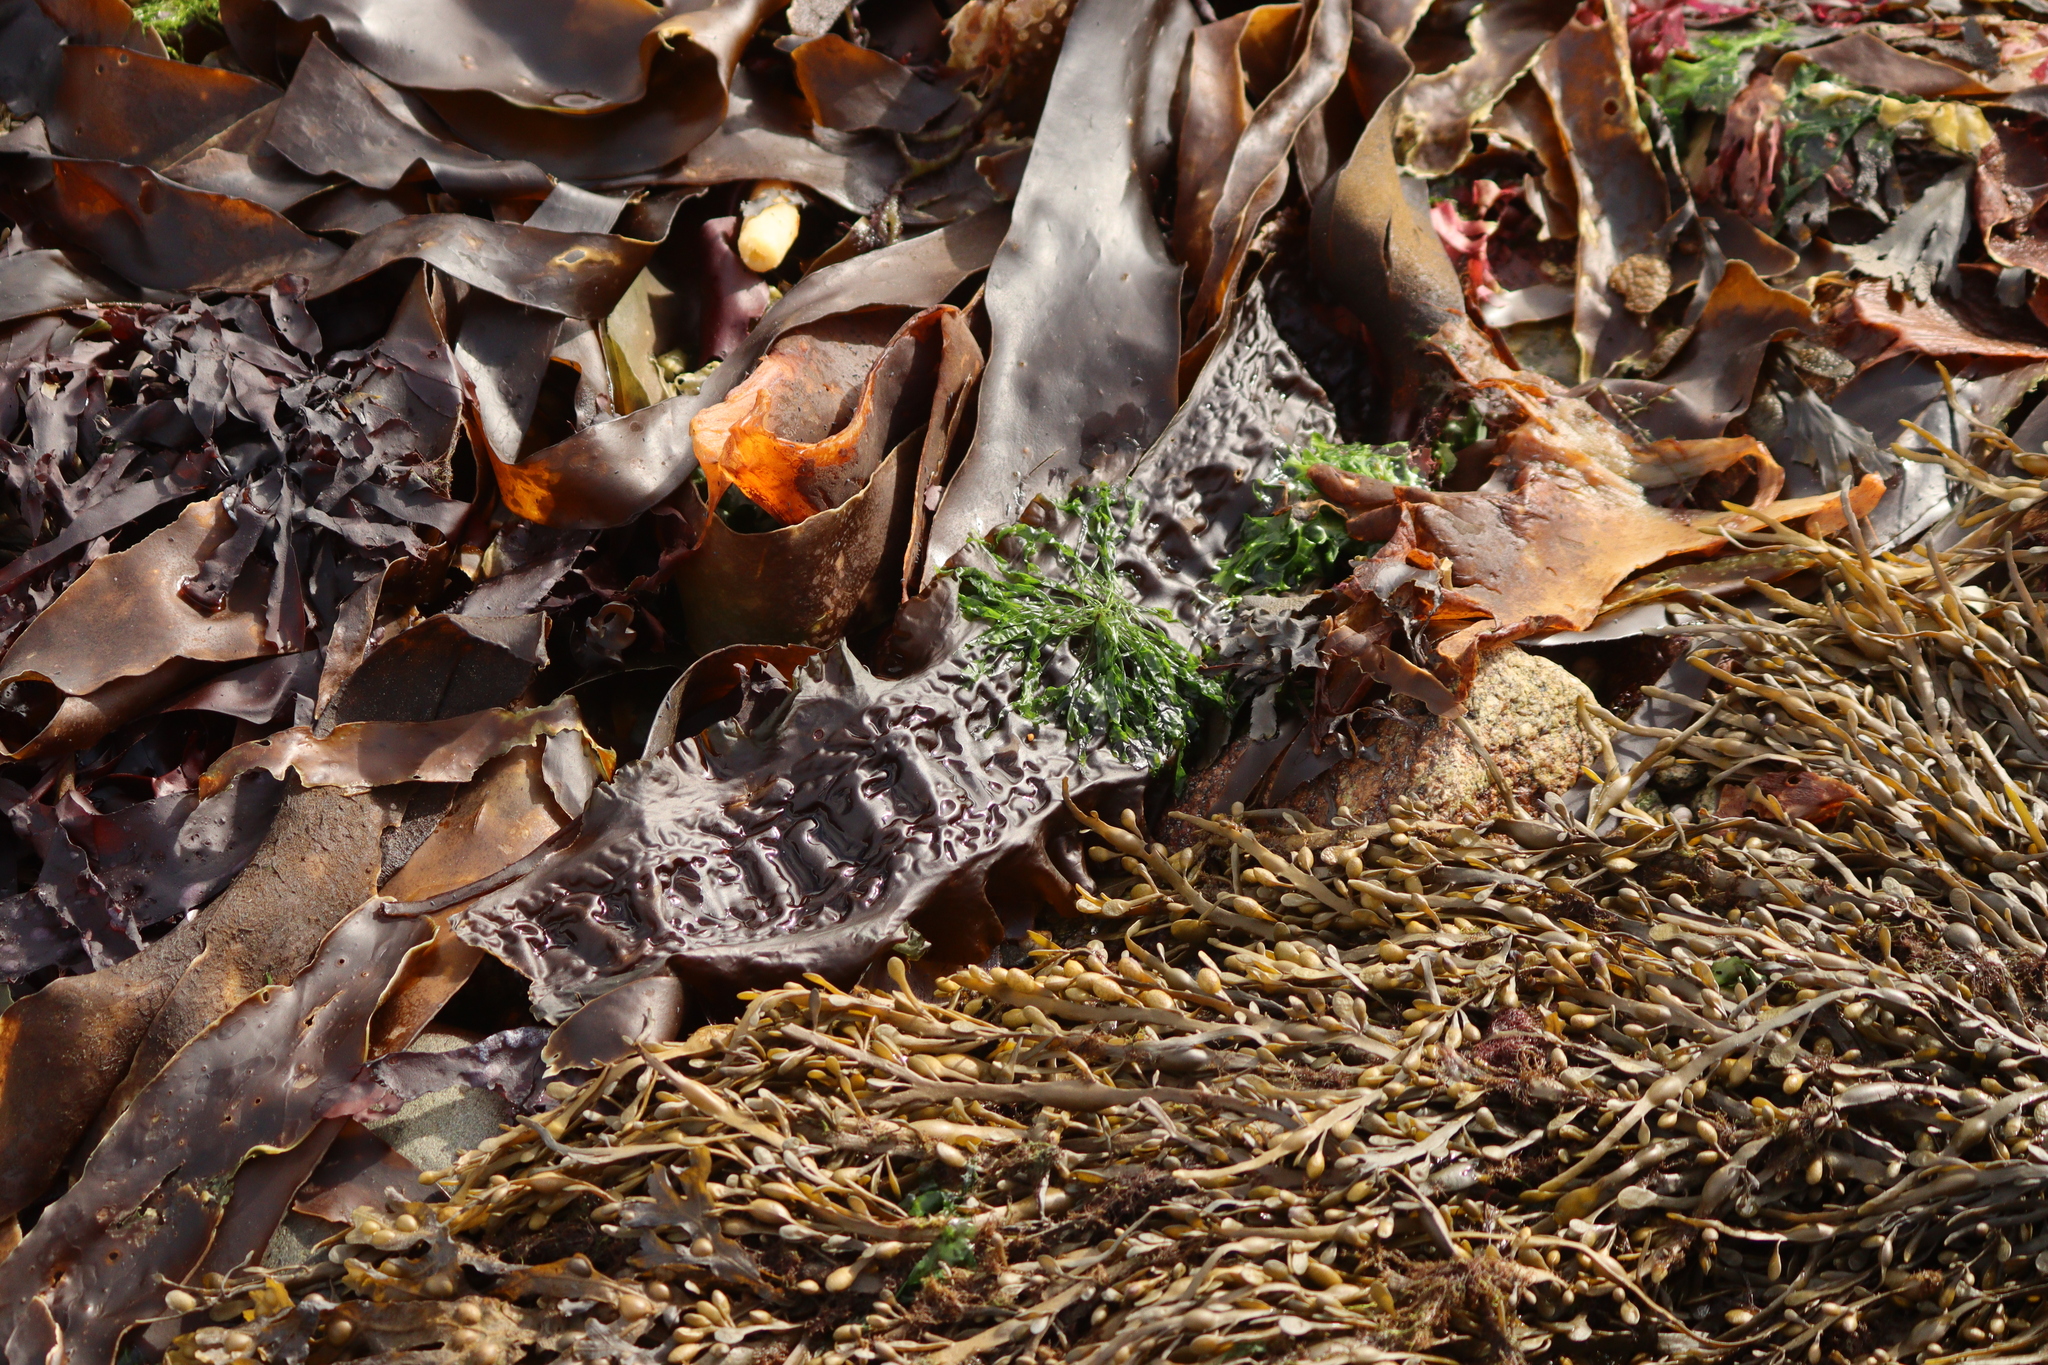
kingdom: Chromista
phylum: Ochrophyta
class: Phaeophyceae
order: Laminariales
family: Laminariaceae
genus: Saccharina
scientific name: Saccharina latissima
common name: Poor man's weather glass
